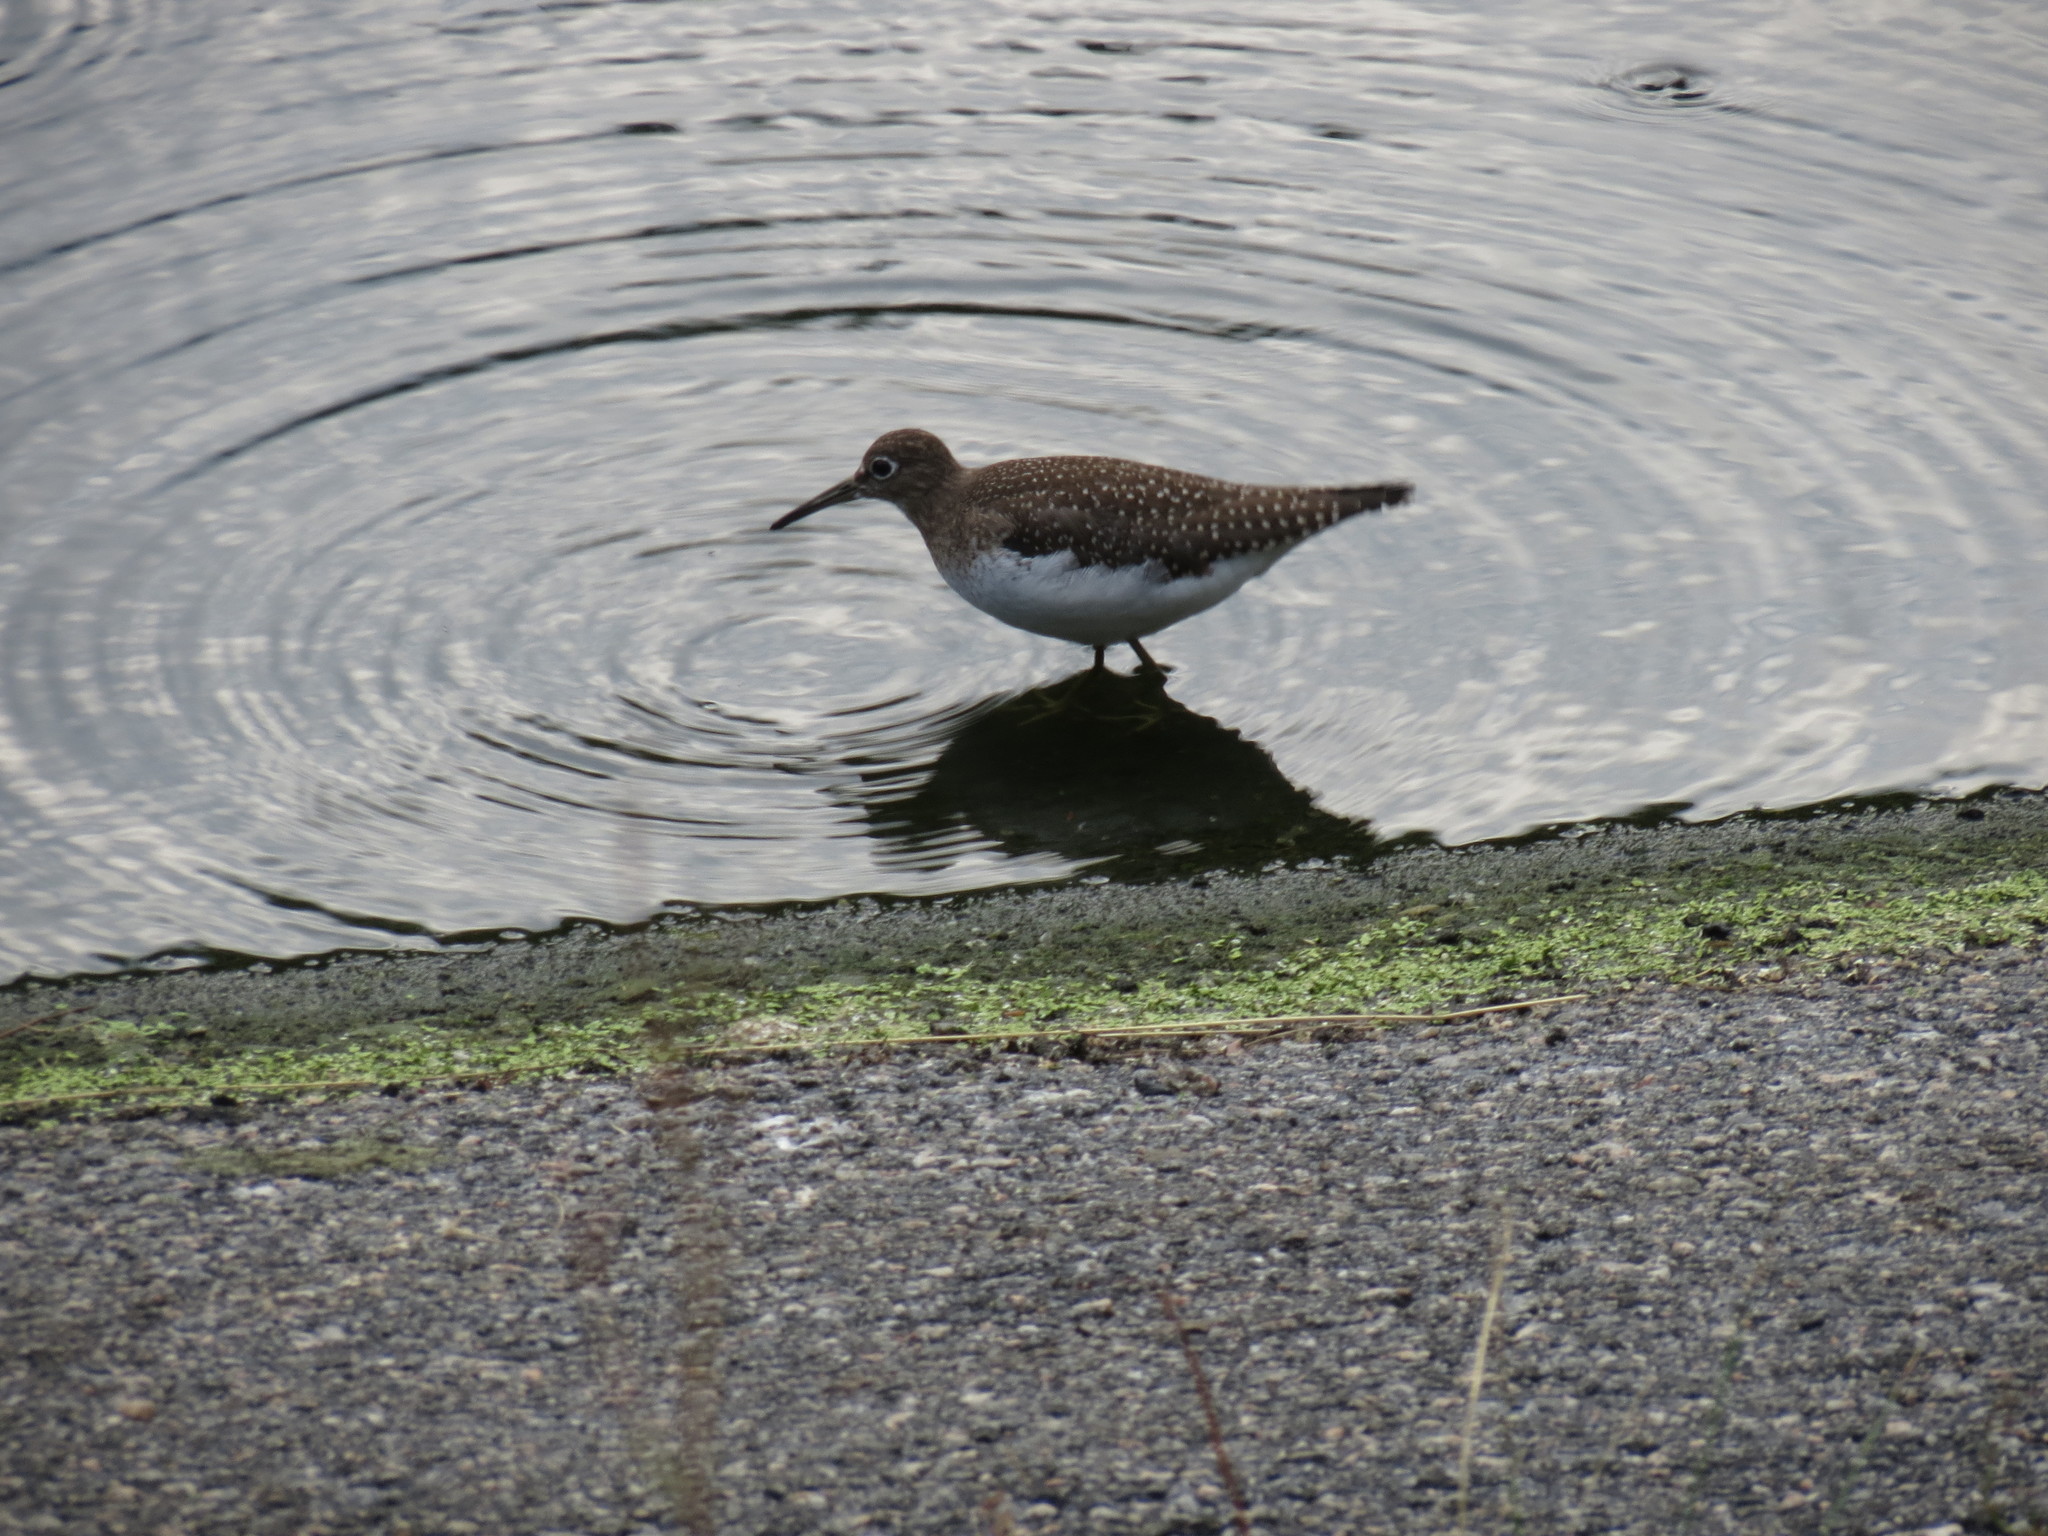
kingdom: Animalia
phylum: Chordata
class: Aves
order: Charadriiformes
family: Scolopacidae
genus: Tringa
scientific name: Tringa solitaria
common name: Solitary sandpiper
